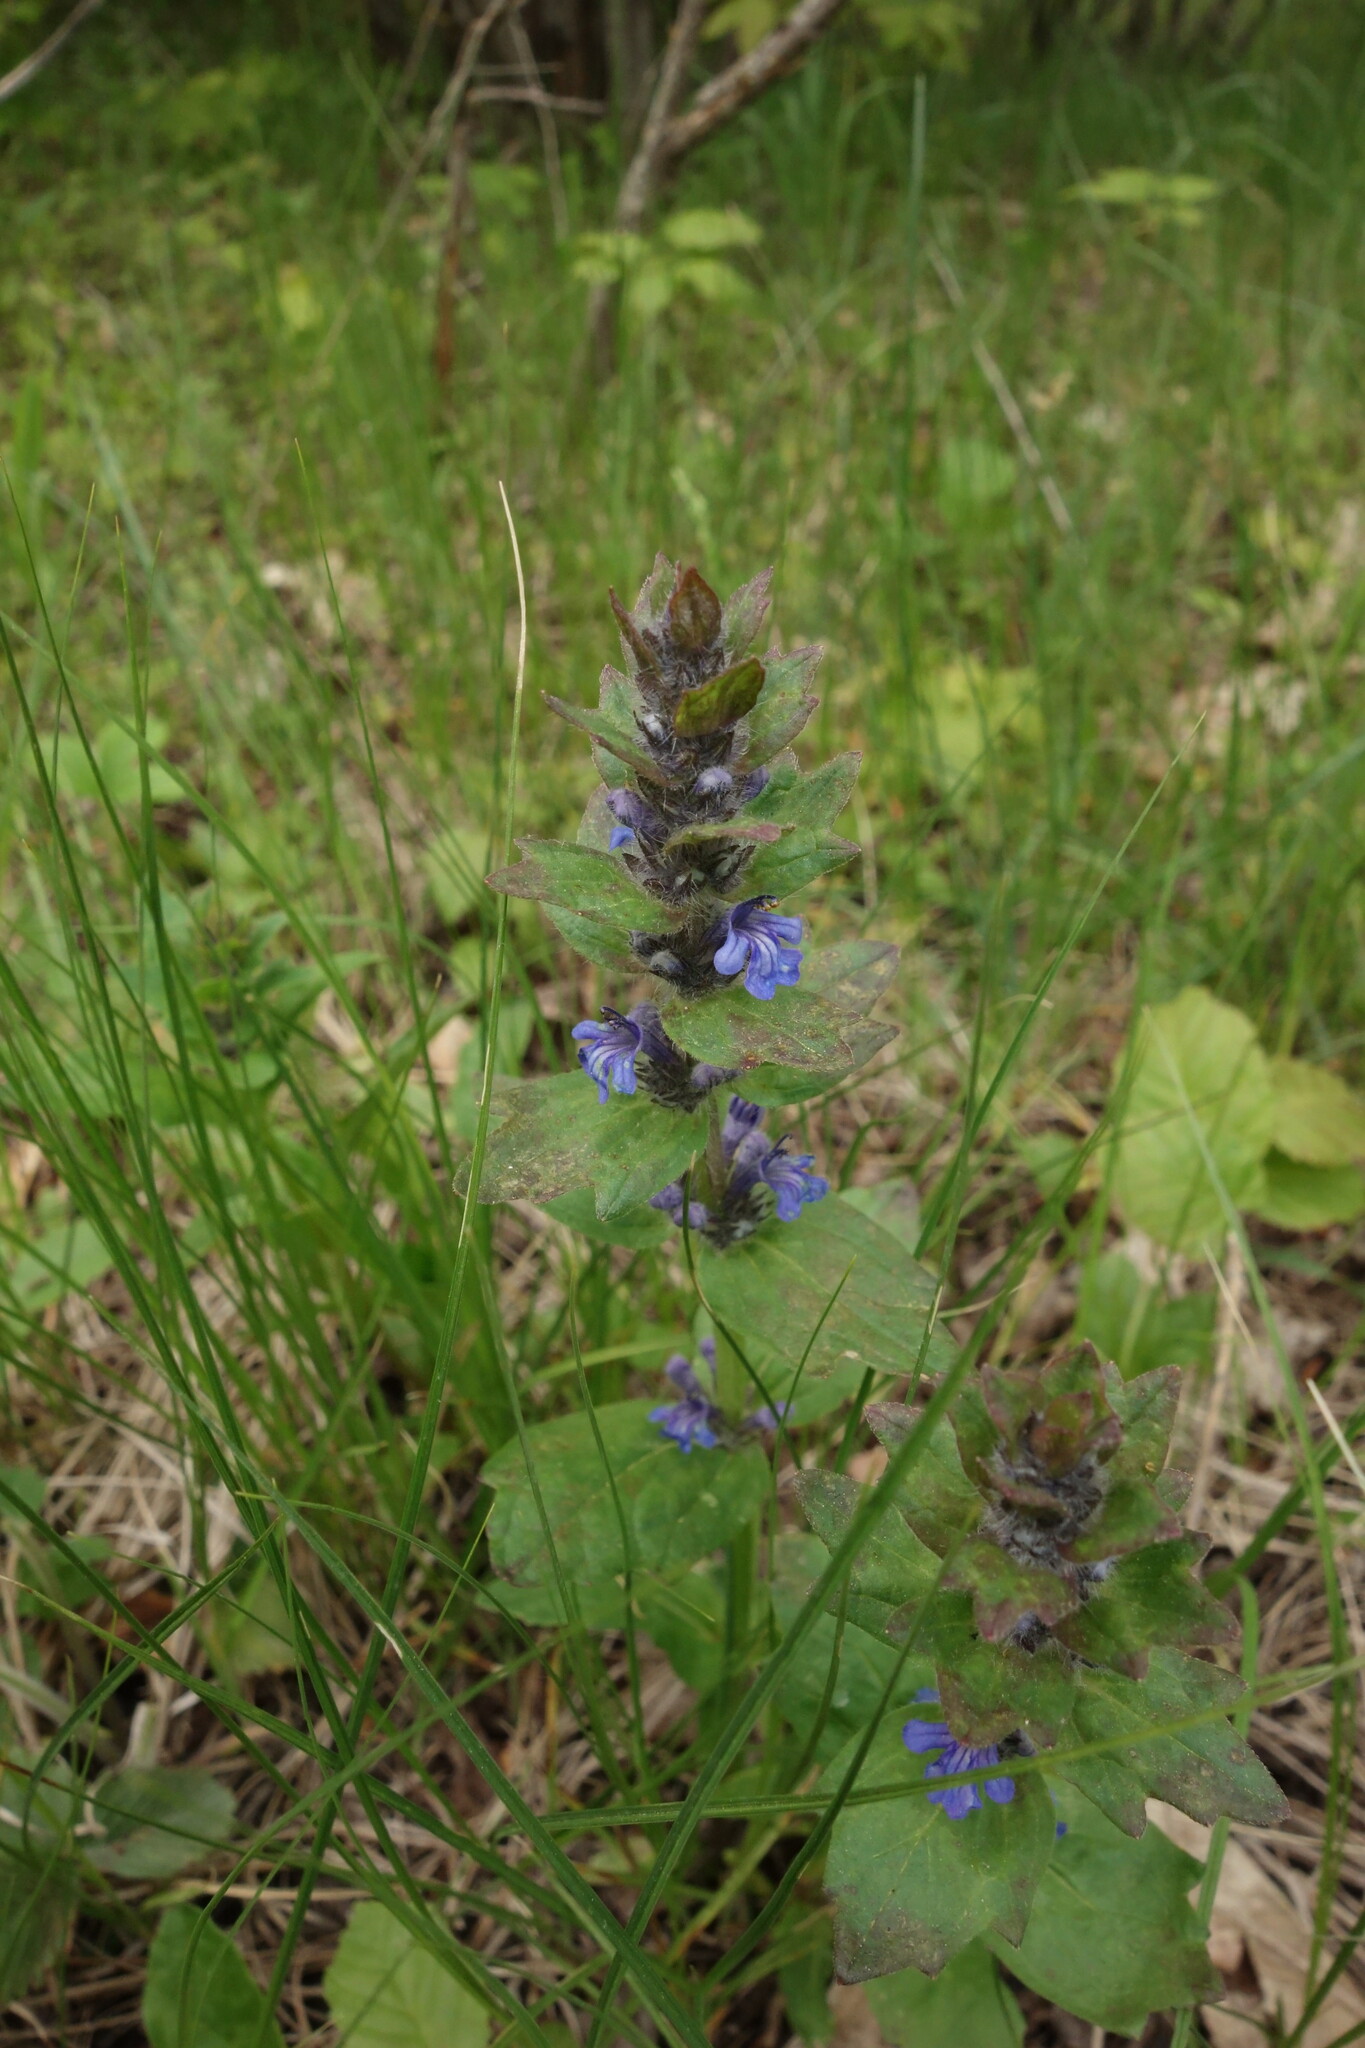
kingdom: Plantae
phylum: Tracheophyta
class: Magnoliopsida
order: Lamiales
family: Lamiaceae
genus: Ajuga
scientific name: Ajuga genevensis
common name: Blue bugle
